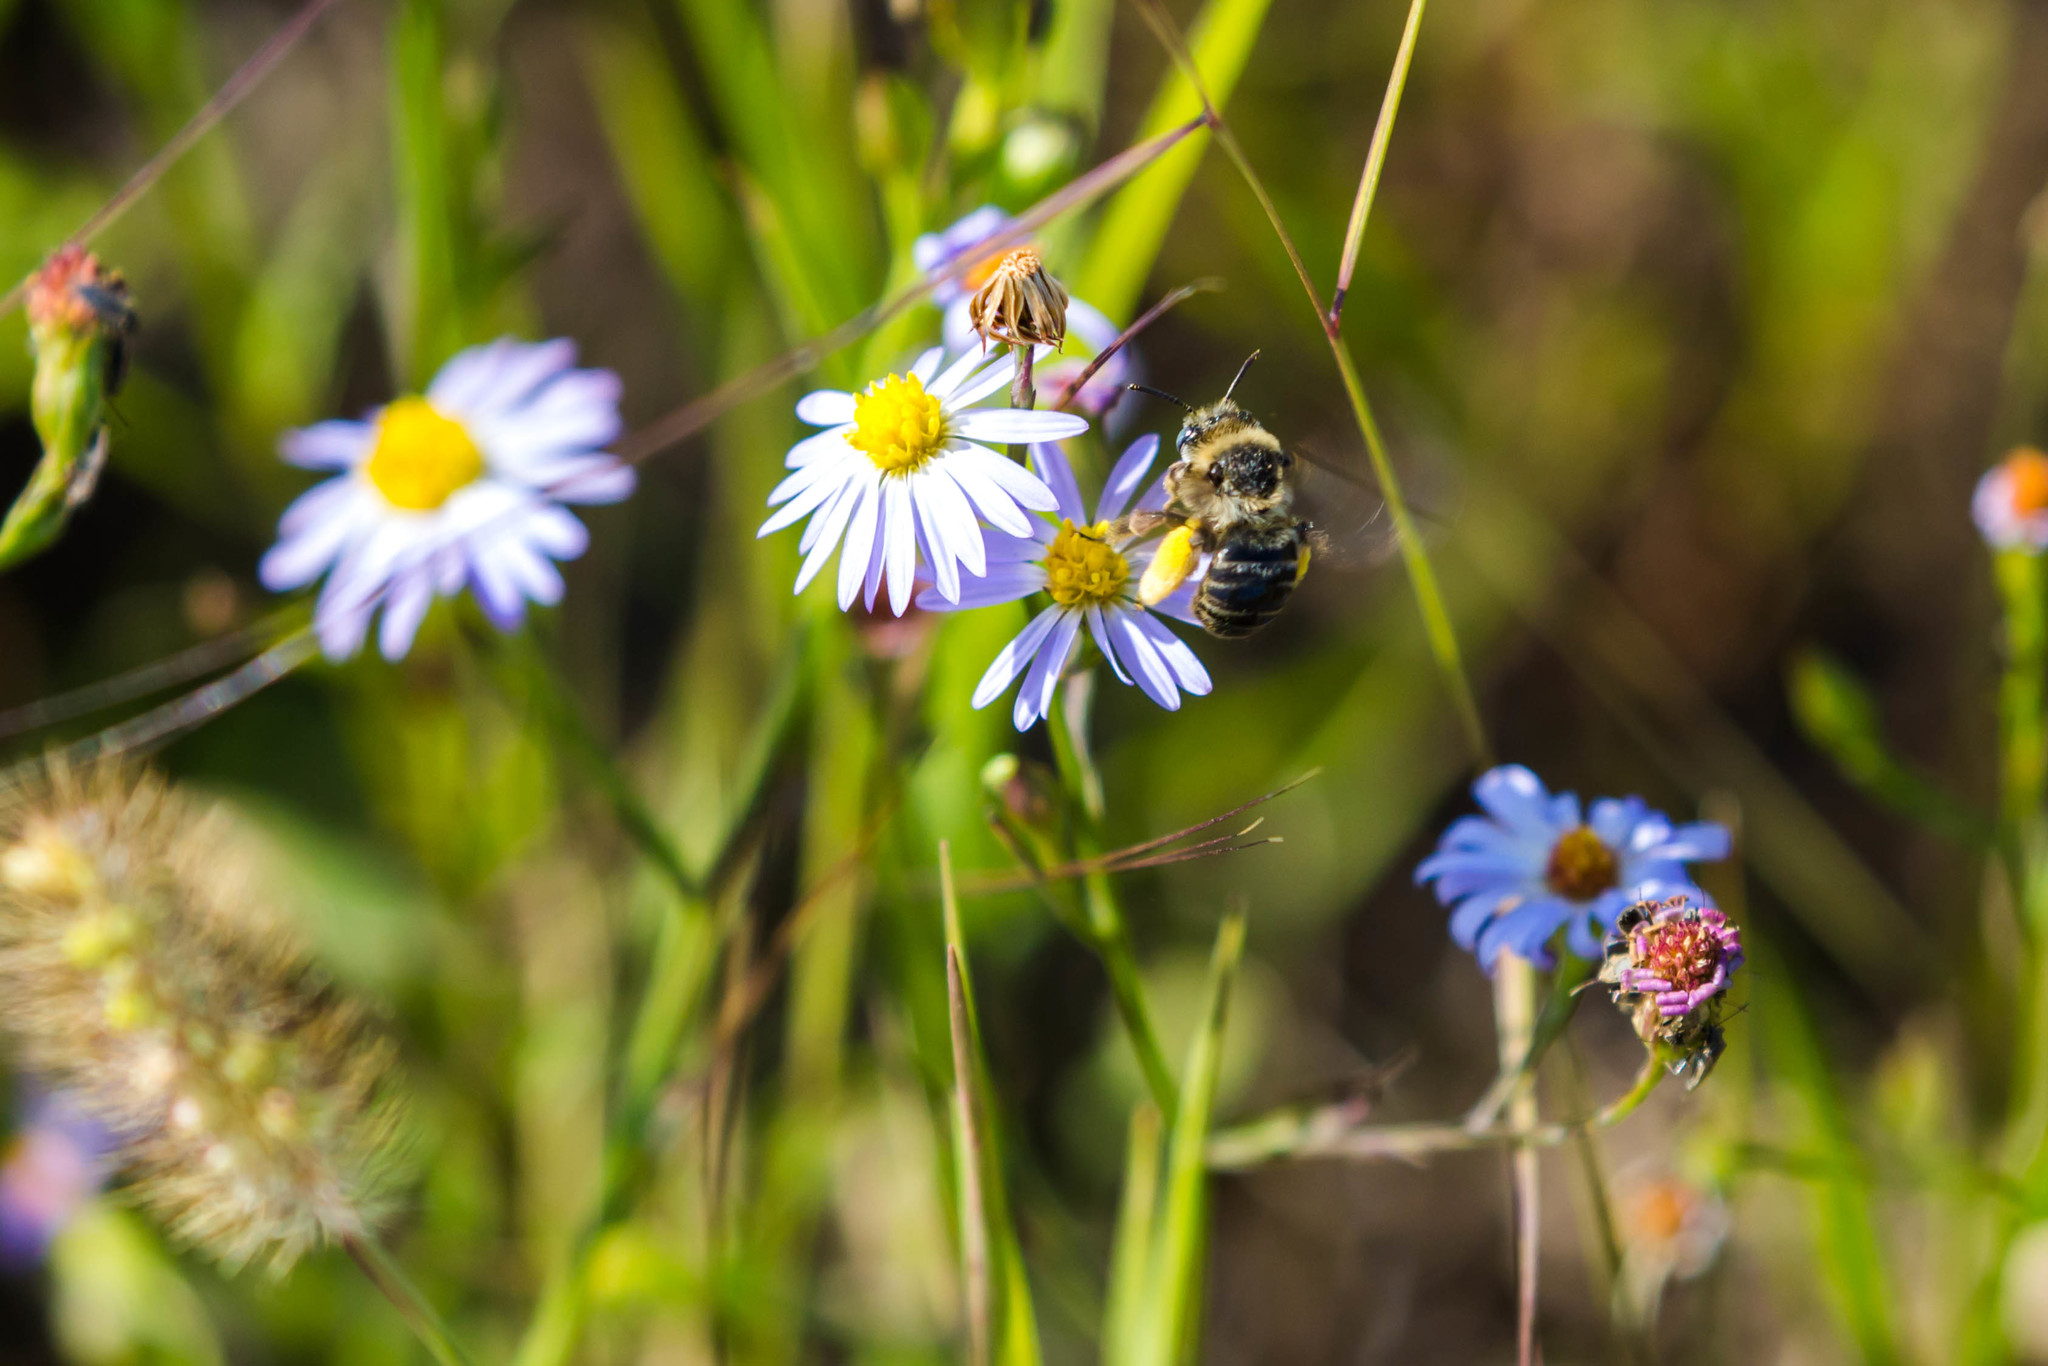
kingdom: Animalia
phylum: Arthropoda
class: Insecta
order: Hymenoptera
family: Apidae
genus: Melissodes
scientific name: Melissodes communis
